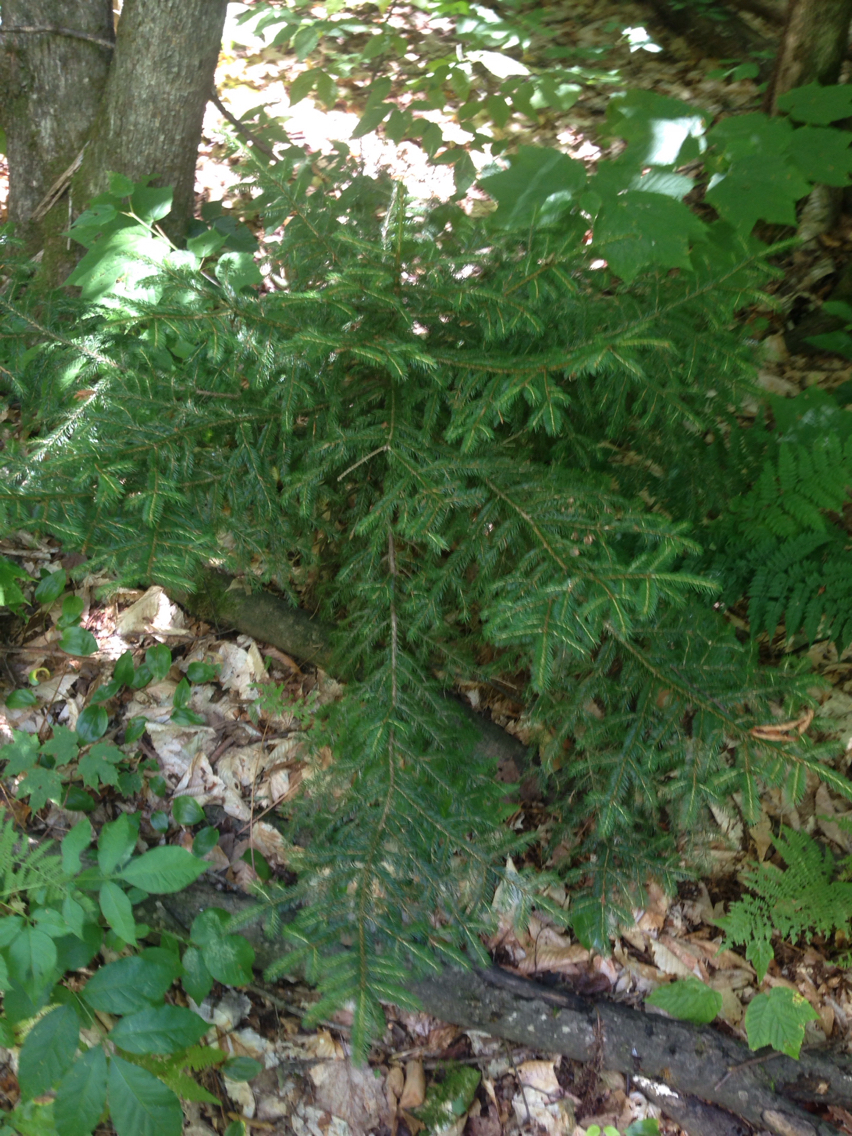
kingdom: Plantae
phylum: Tracheophyta
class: Pinopsida
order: Pinales
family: Pinaceae
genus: Picea
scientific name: Picea rubens
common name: Red spruce
